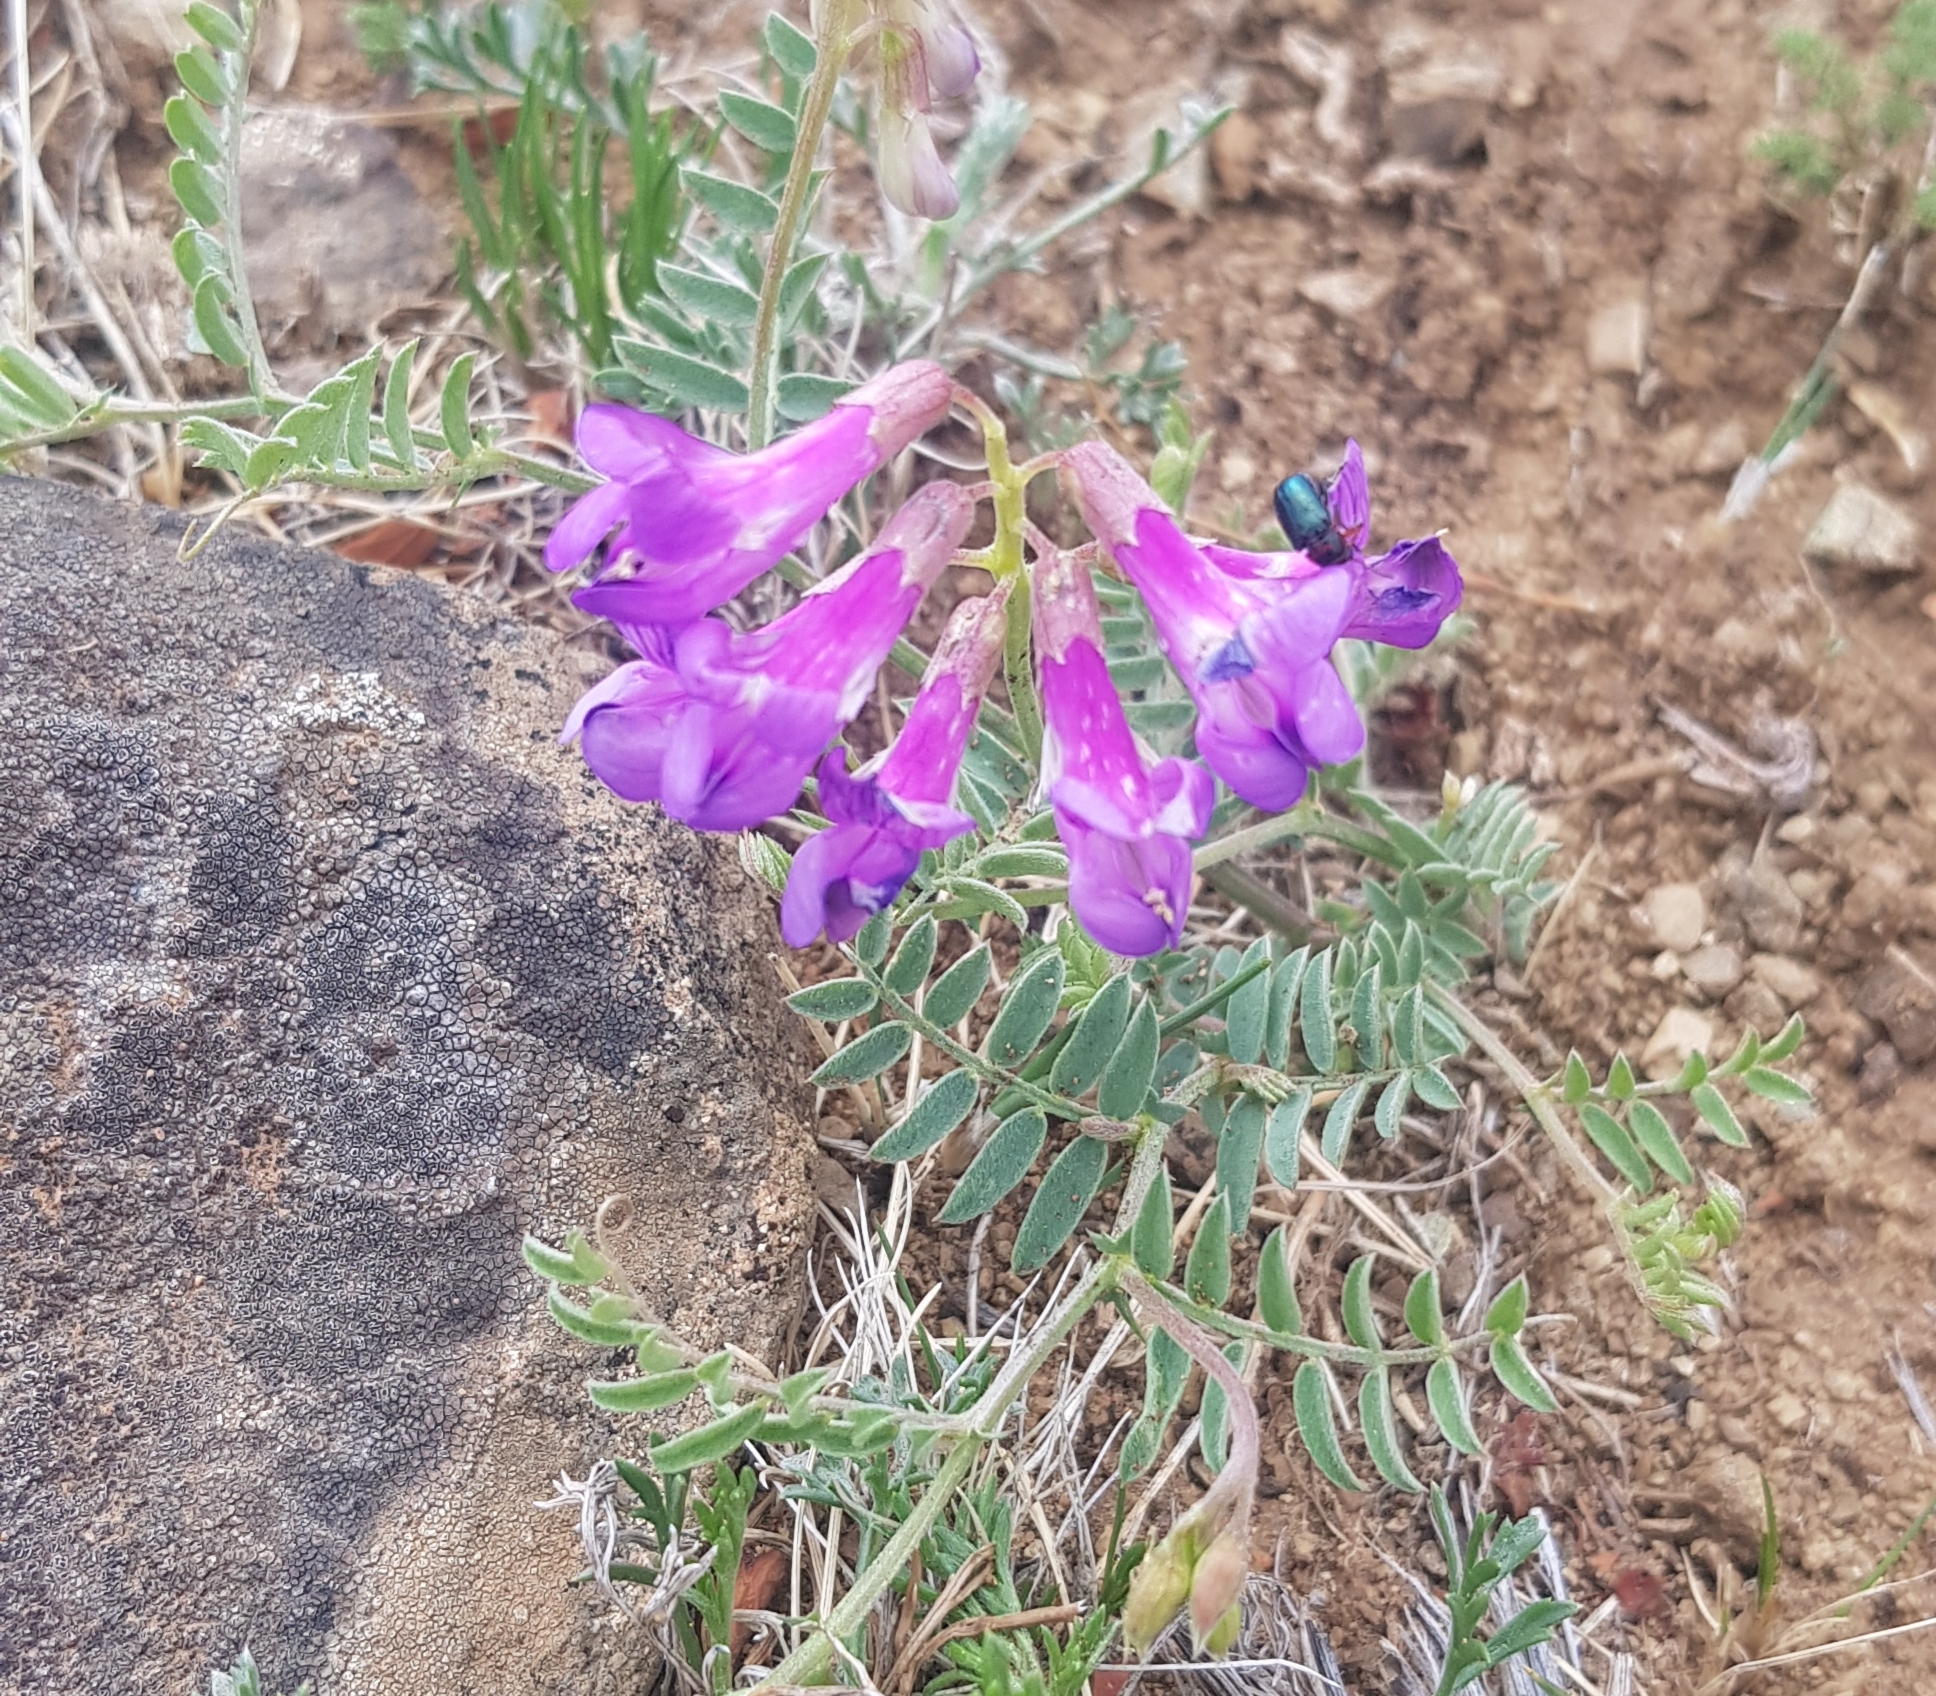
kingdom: Plantae
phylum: Tracheophyta
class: Magnoliopsida
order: Fabales
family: Fabaceae
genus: Astragalus
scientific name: Astragalus davuricus
